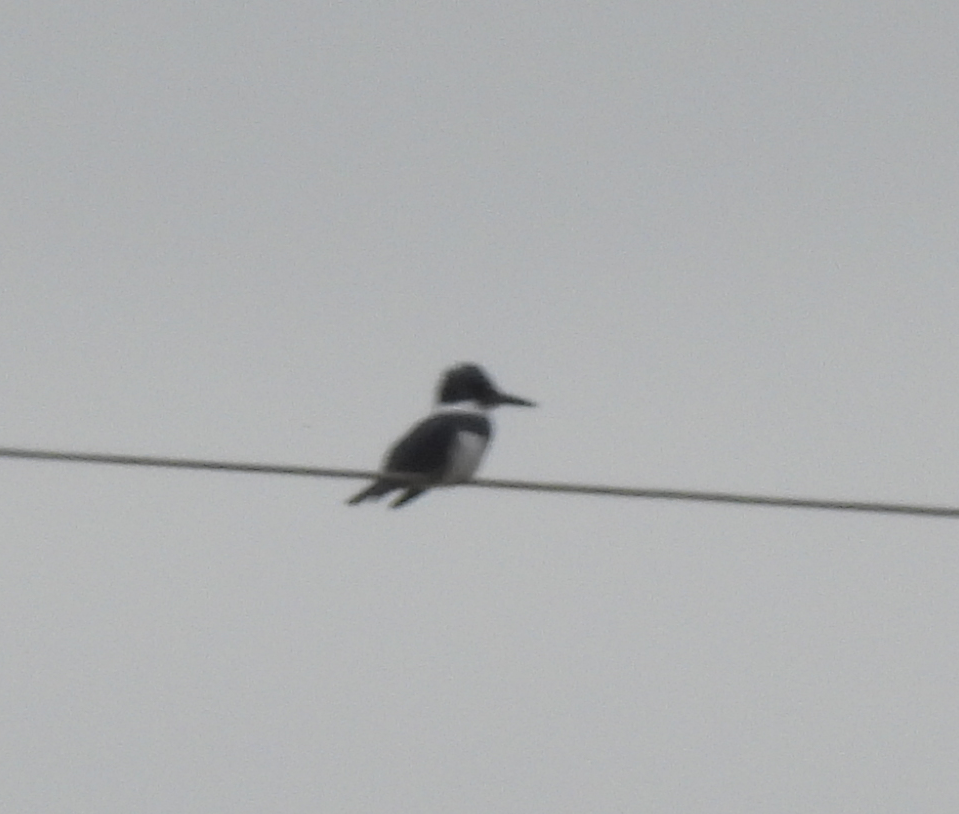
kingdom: Animalia
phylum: Chordata
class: Aves
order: Coraciiformes
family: Alcedinidae
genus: Megaceryle
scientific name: Megaceryle alcyon
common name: Belted kingfisher
